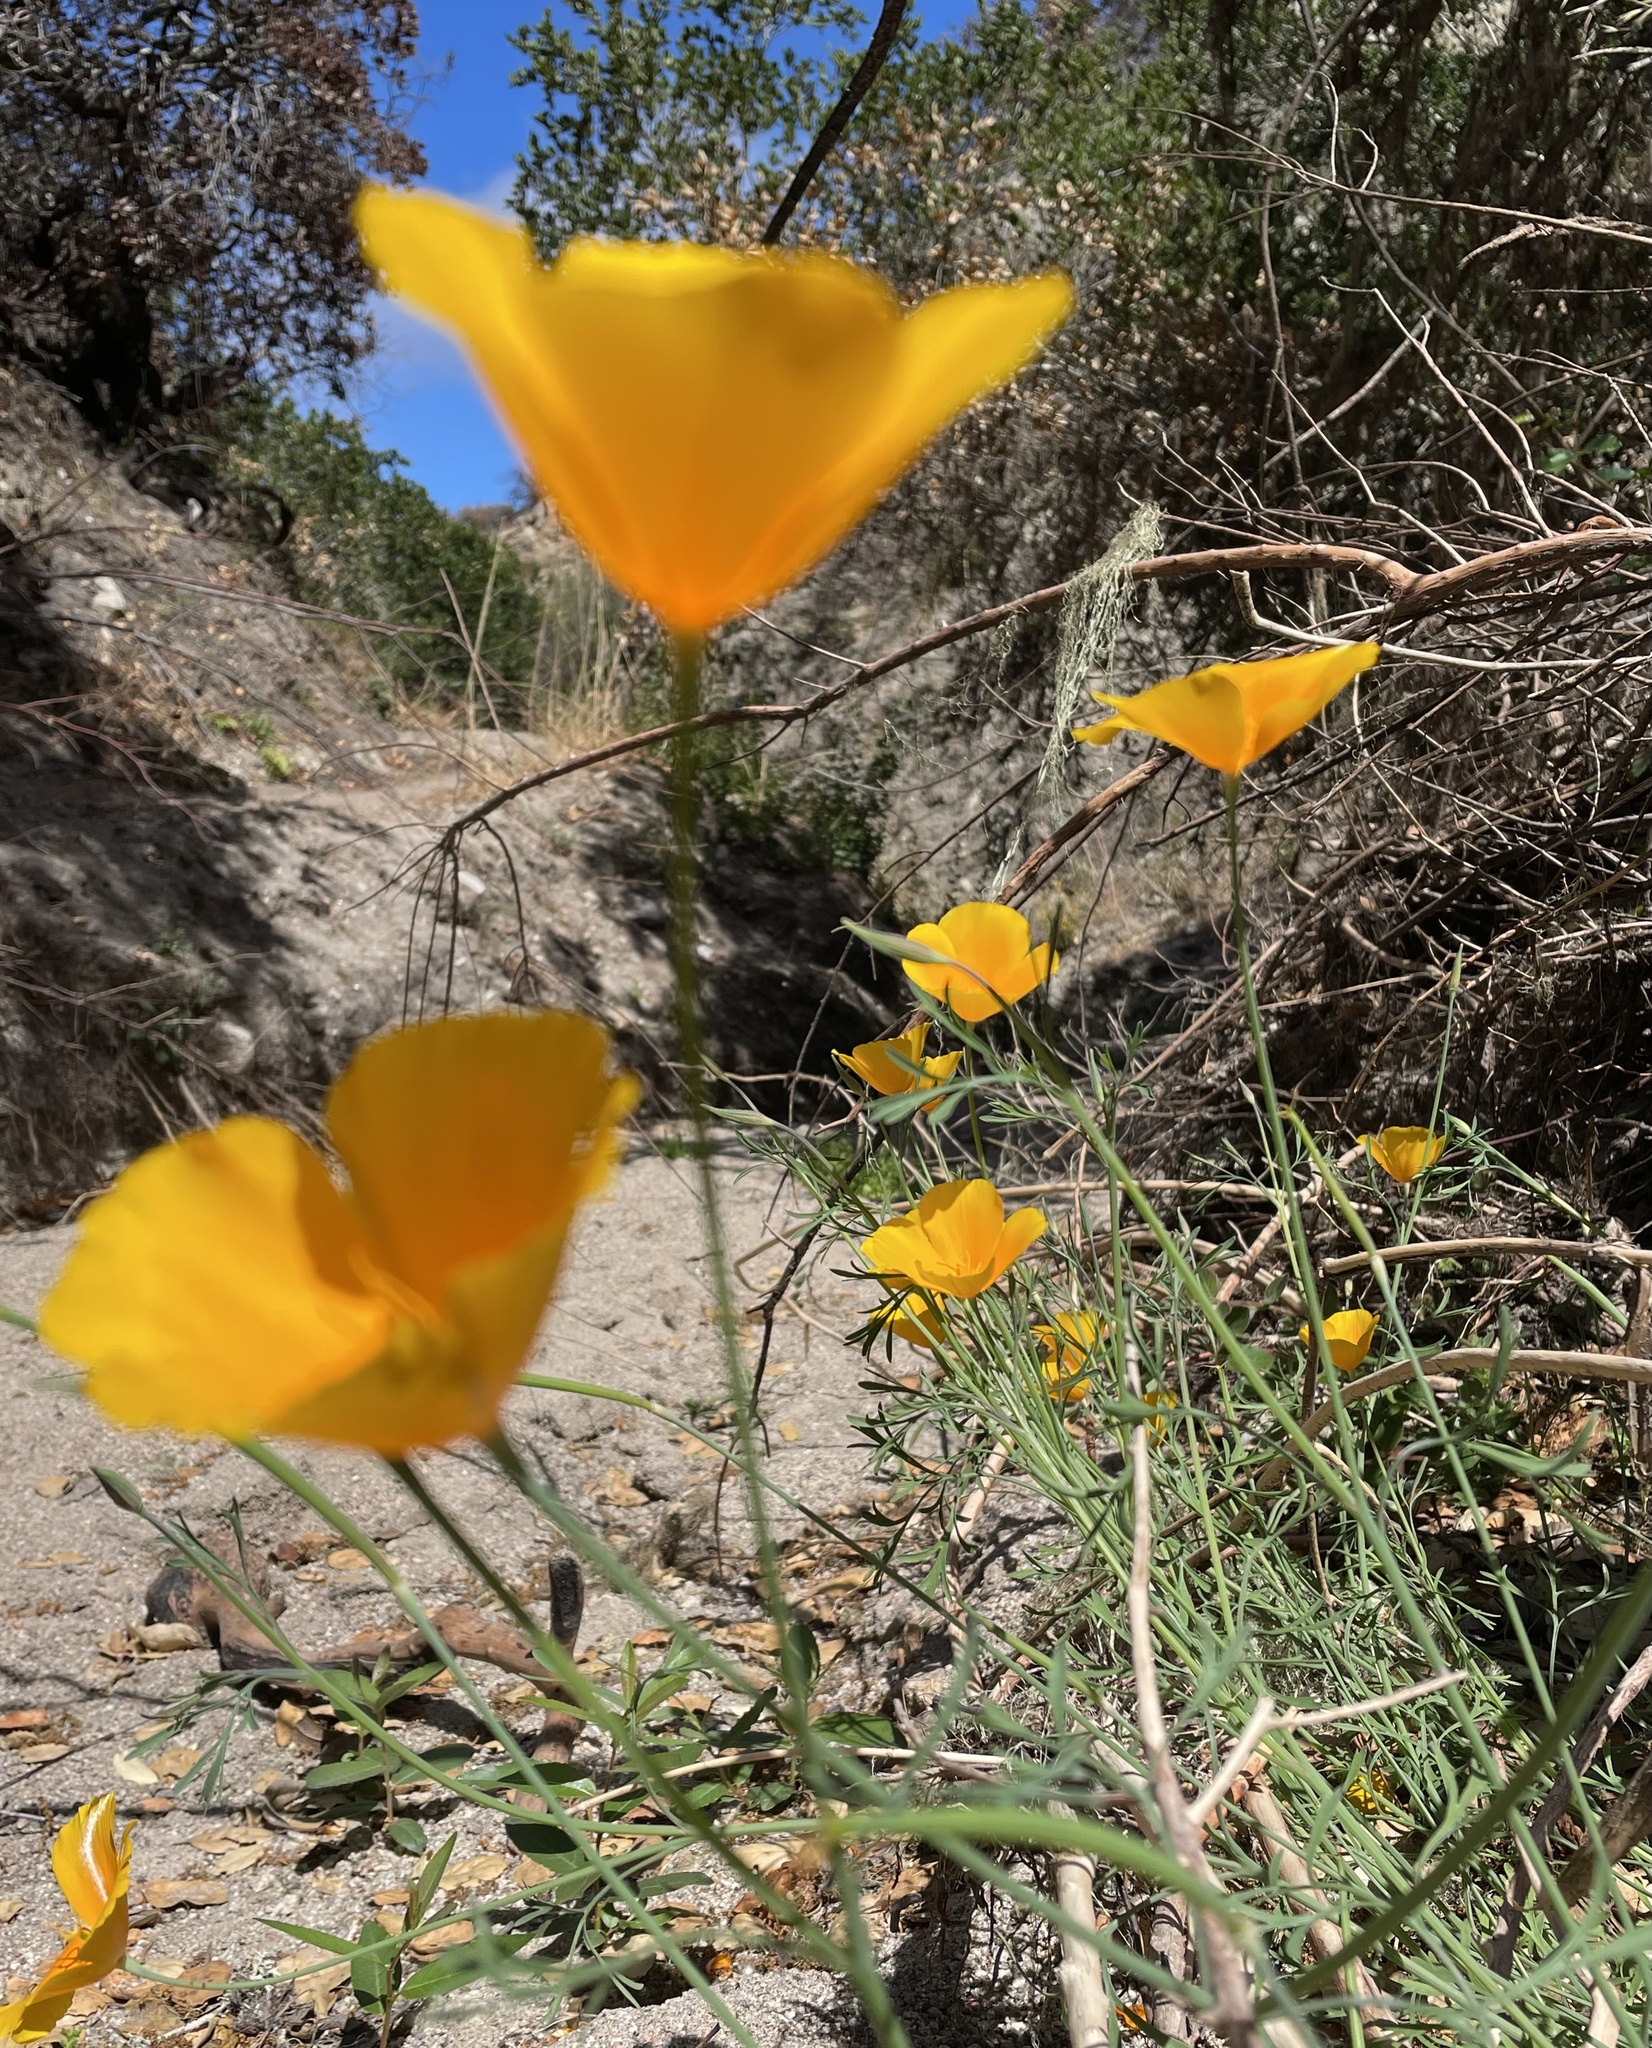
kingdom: Plantae
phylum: Tracheophyta
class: Magnoliopsida
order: Ranunculales
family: Papaveraceae
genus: Eschscholzia
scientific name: Eschscholzia caespitosa
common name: Tufted california-poppy
